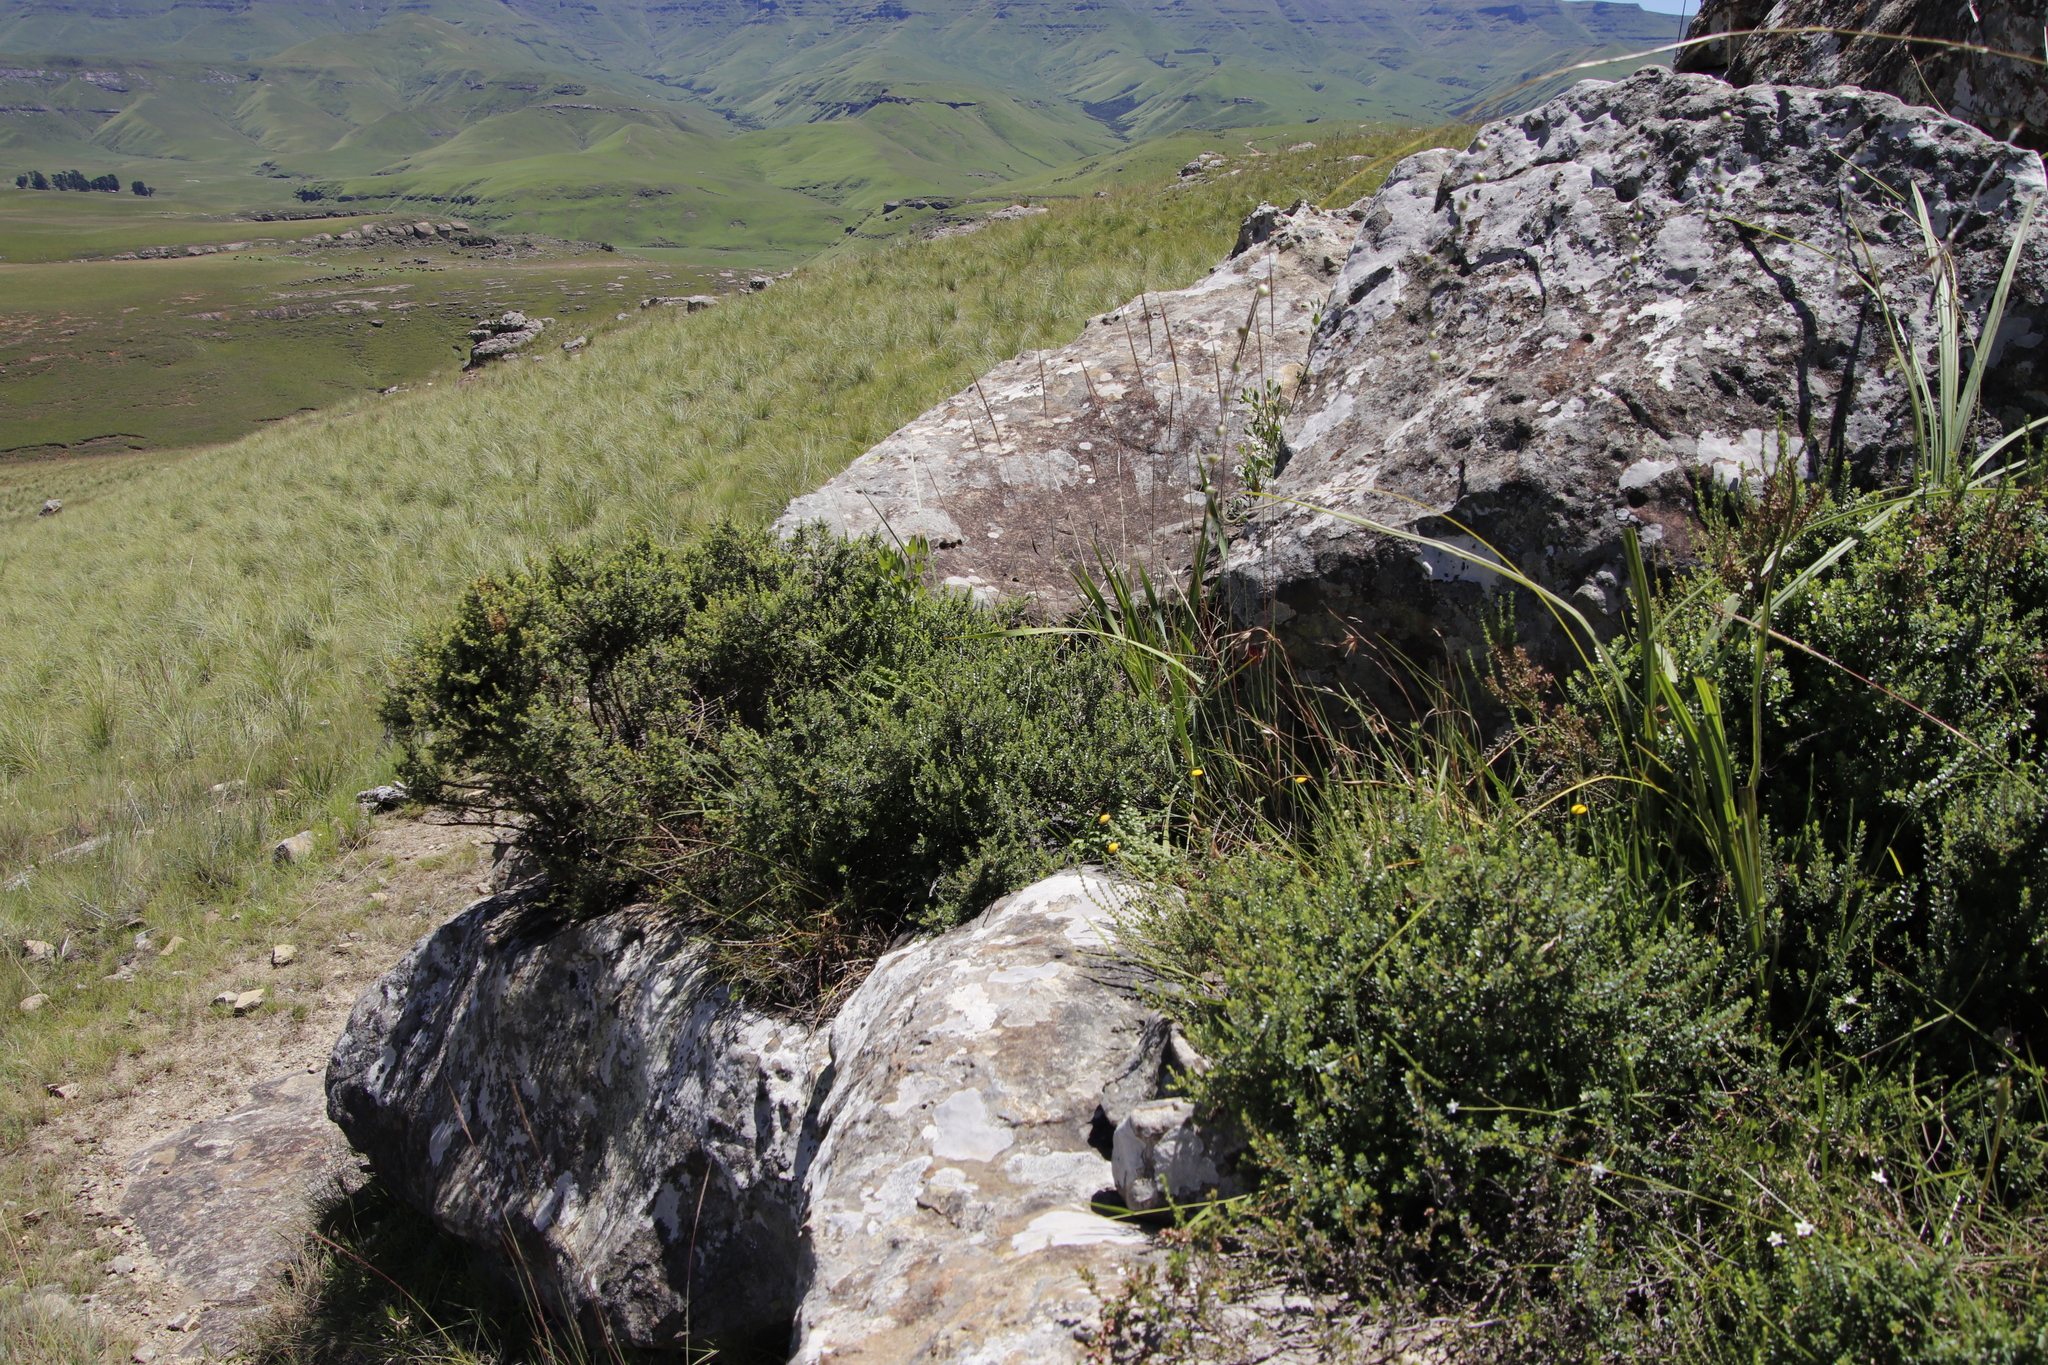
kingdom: Plantae
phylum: Tracheophyta
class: Magnoliopsida
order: Sapindales
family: Rutaceae
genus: Agathosma
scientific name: Agathosma ovata
